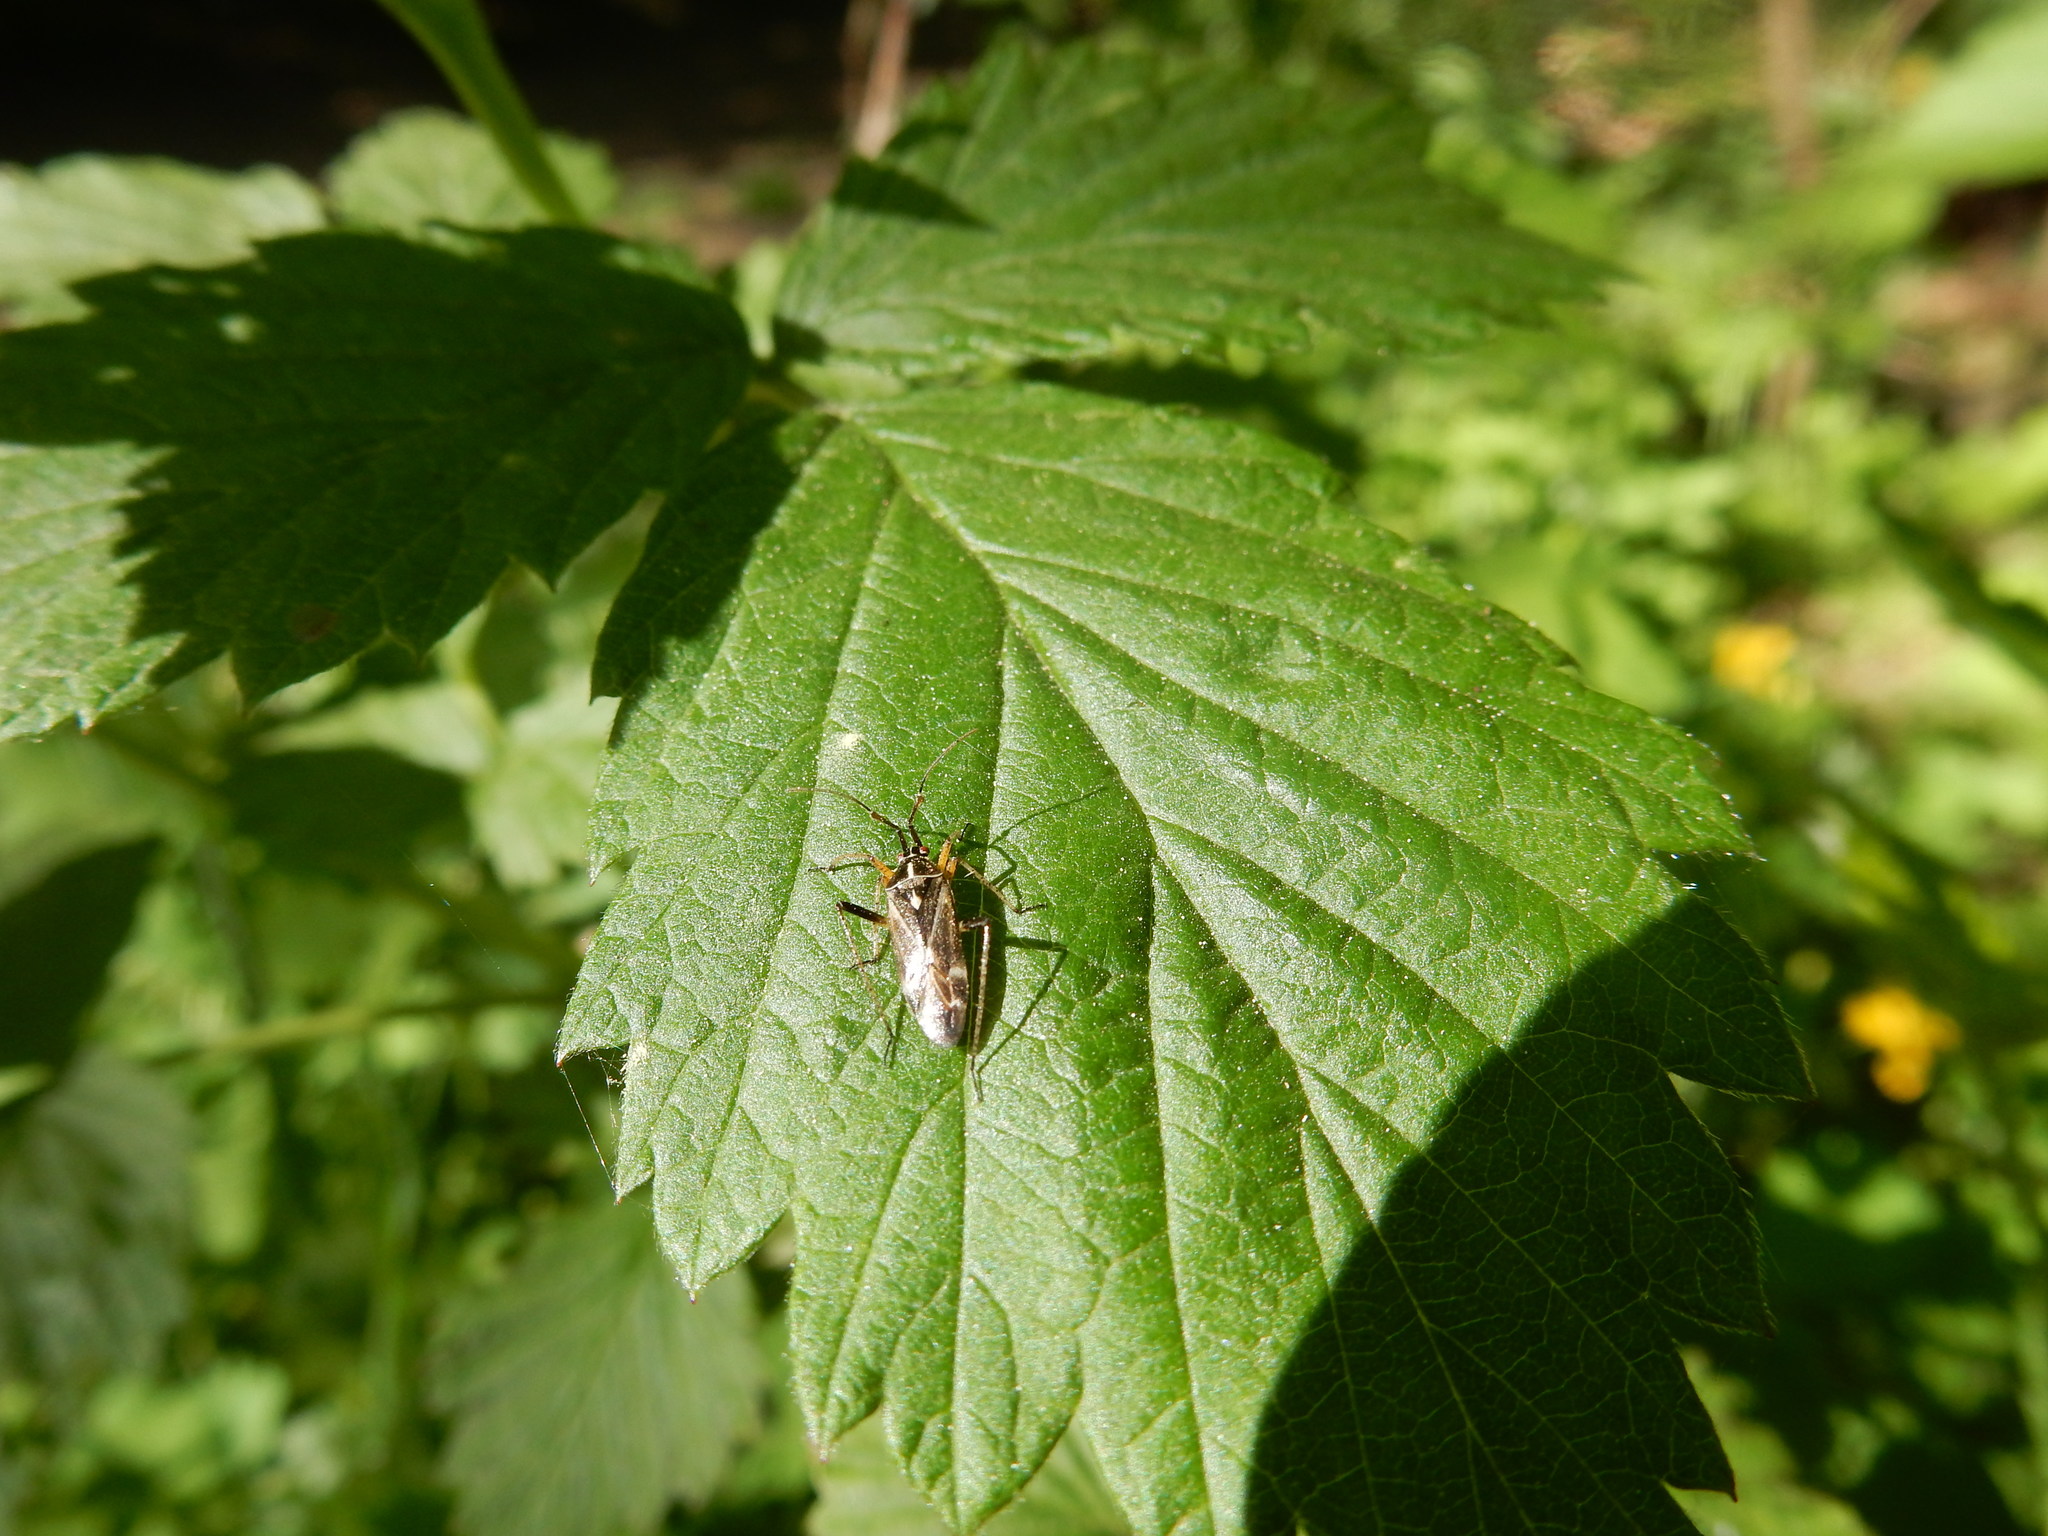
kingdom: Animalia
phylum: Arthropoda
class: Insecta
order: Hemiptera
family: Miridae
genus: Harpocera
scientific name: Harpocera thoracica
